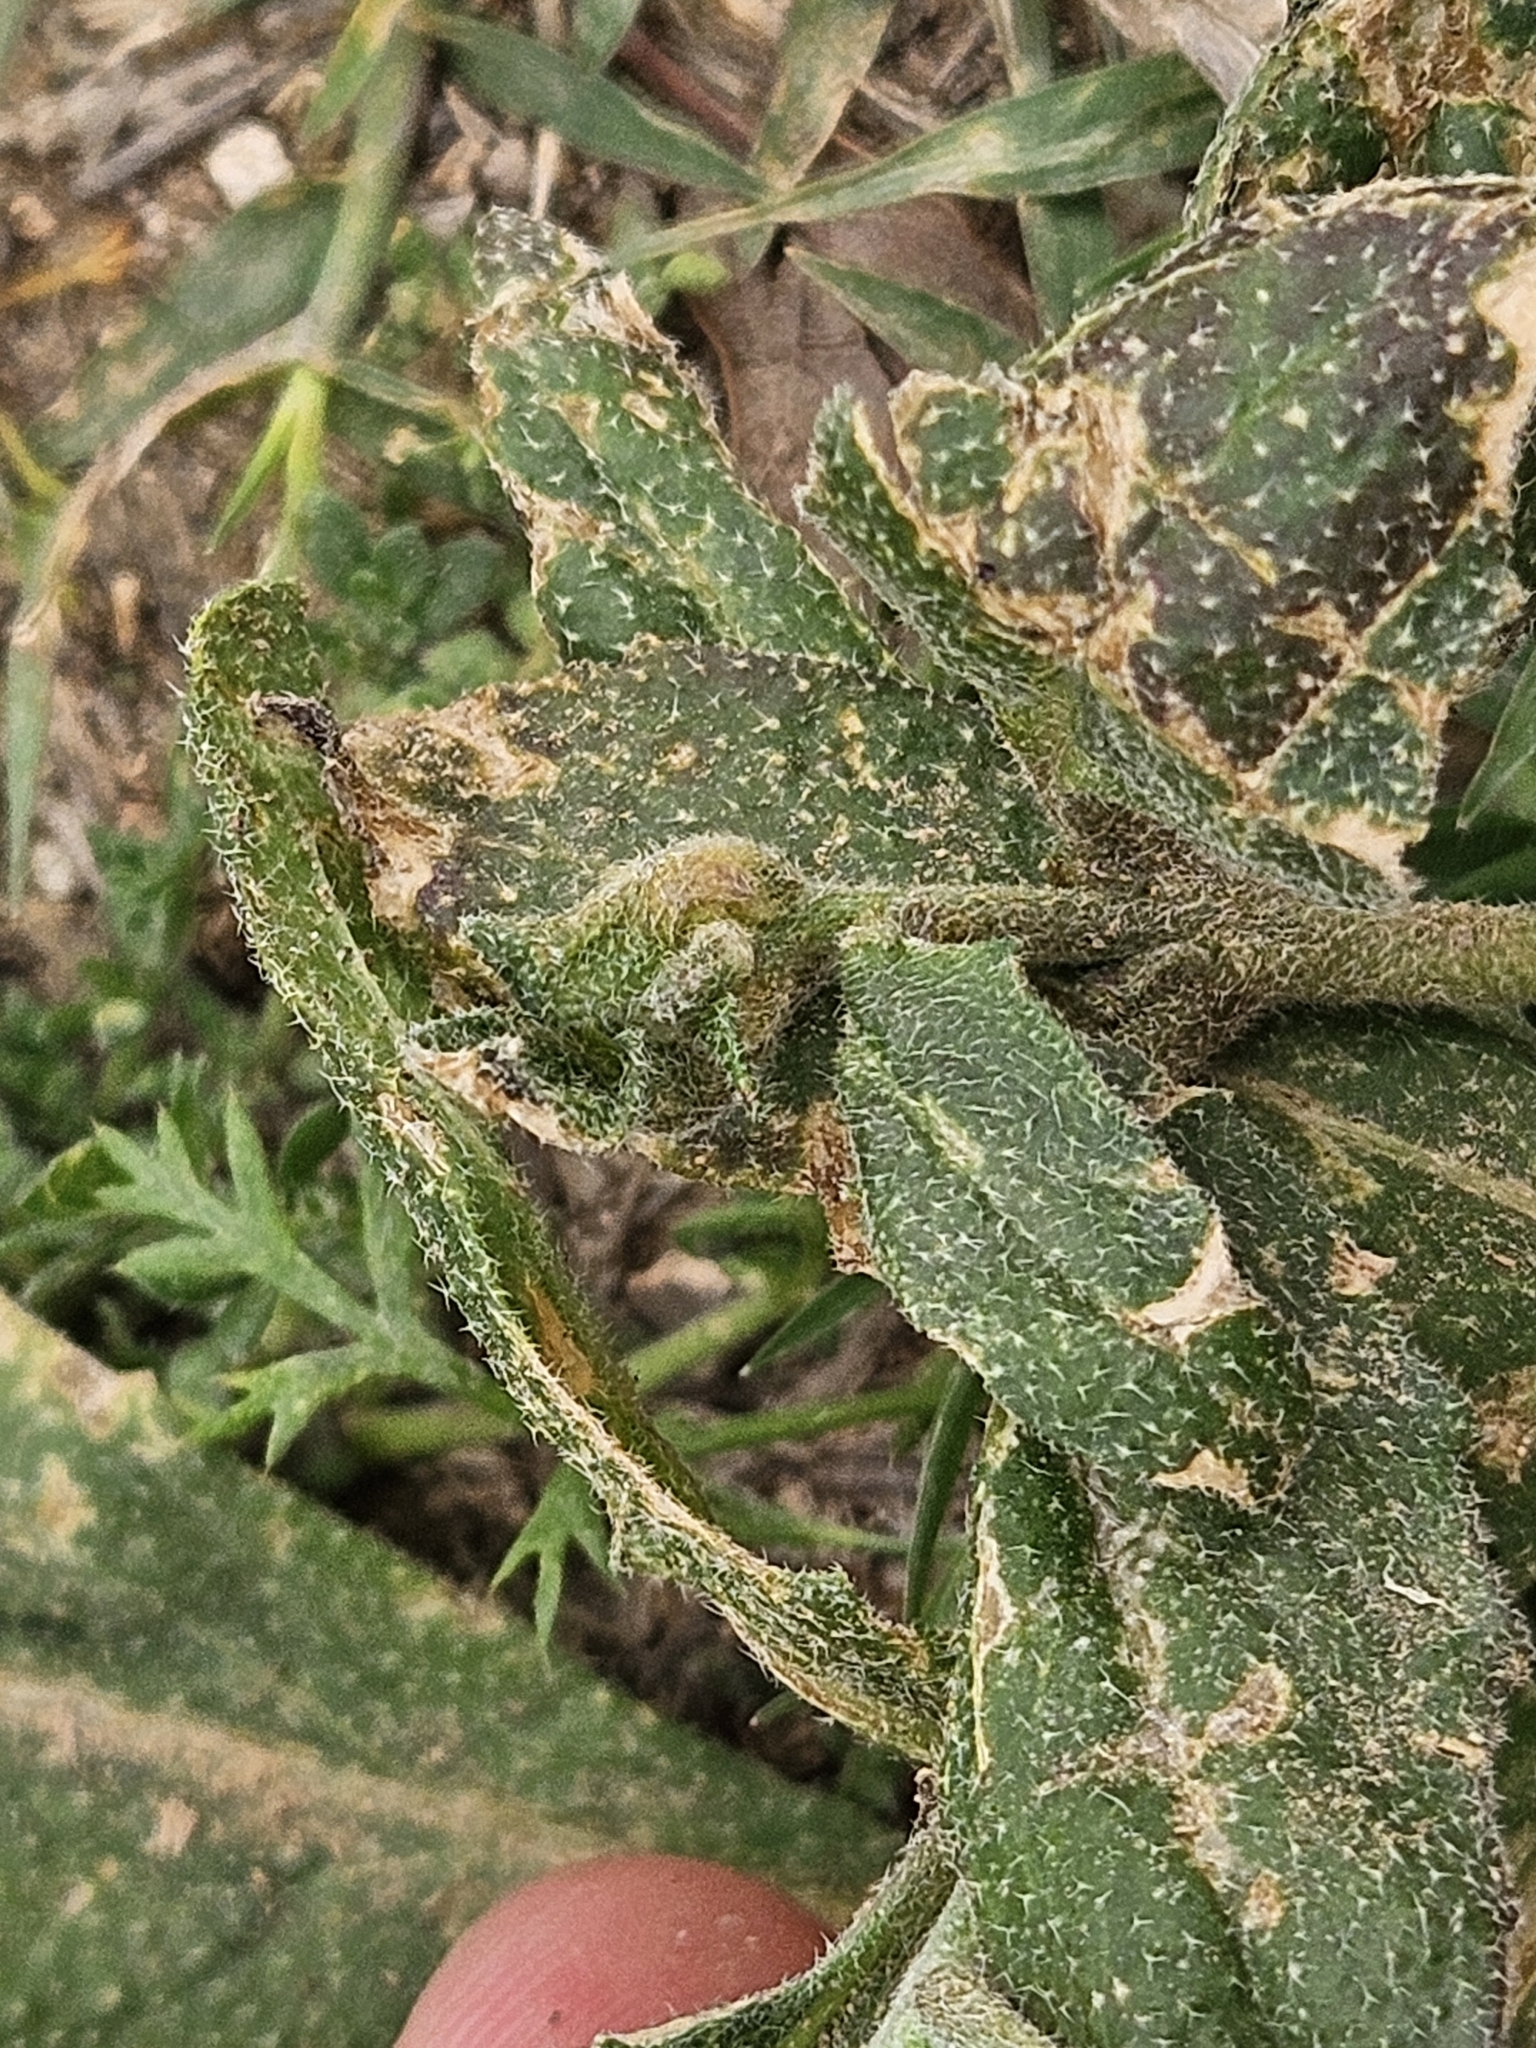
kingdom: Plantae
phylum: Tracheophyta
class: Magnoliopsida
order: Brassicales
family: Brassicaceae
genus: Strigosella
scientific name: Strigosella africana
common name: African mustard
